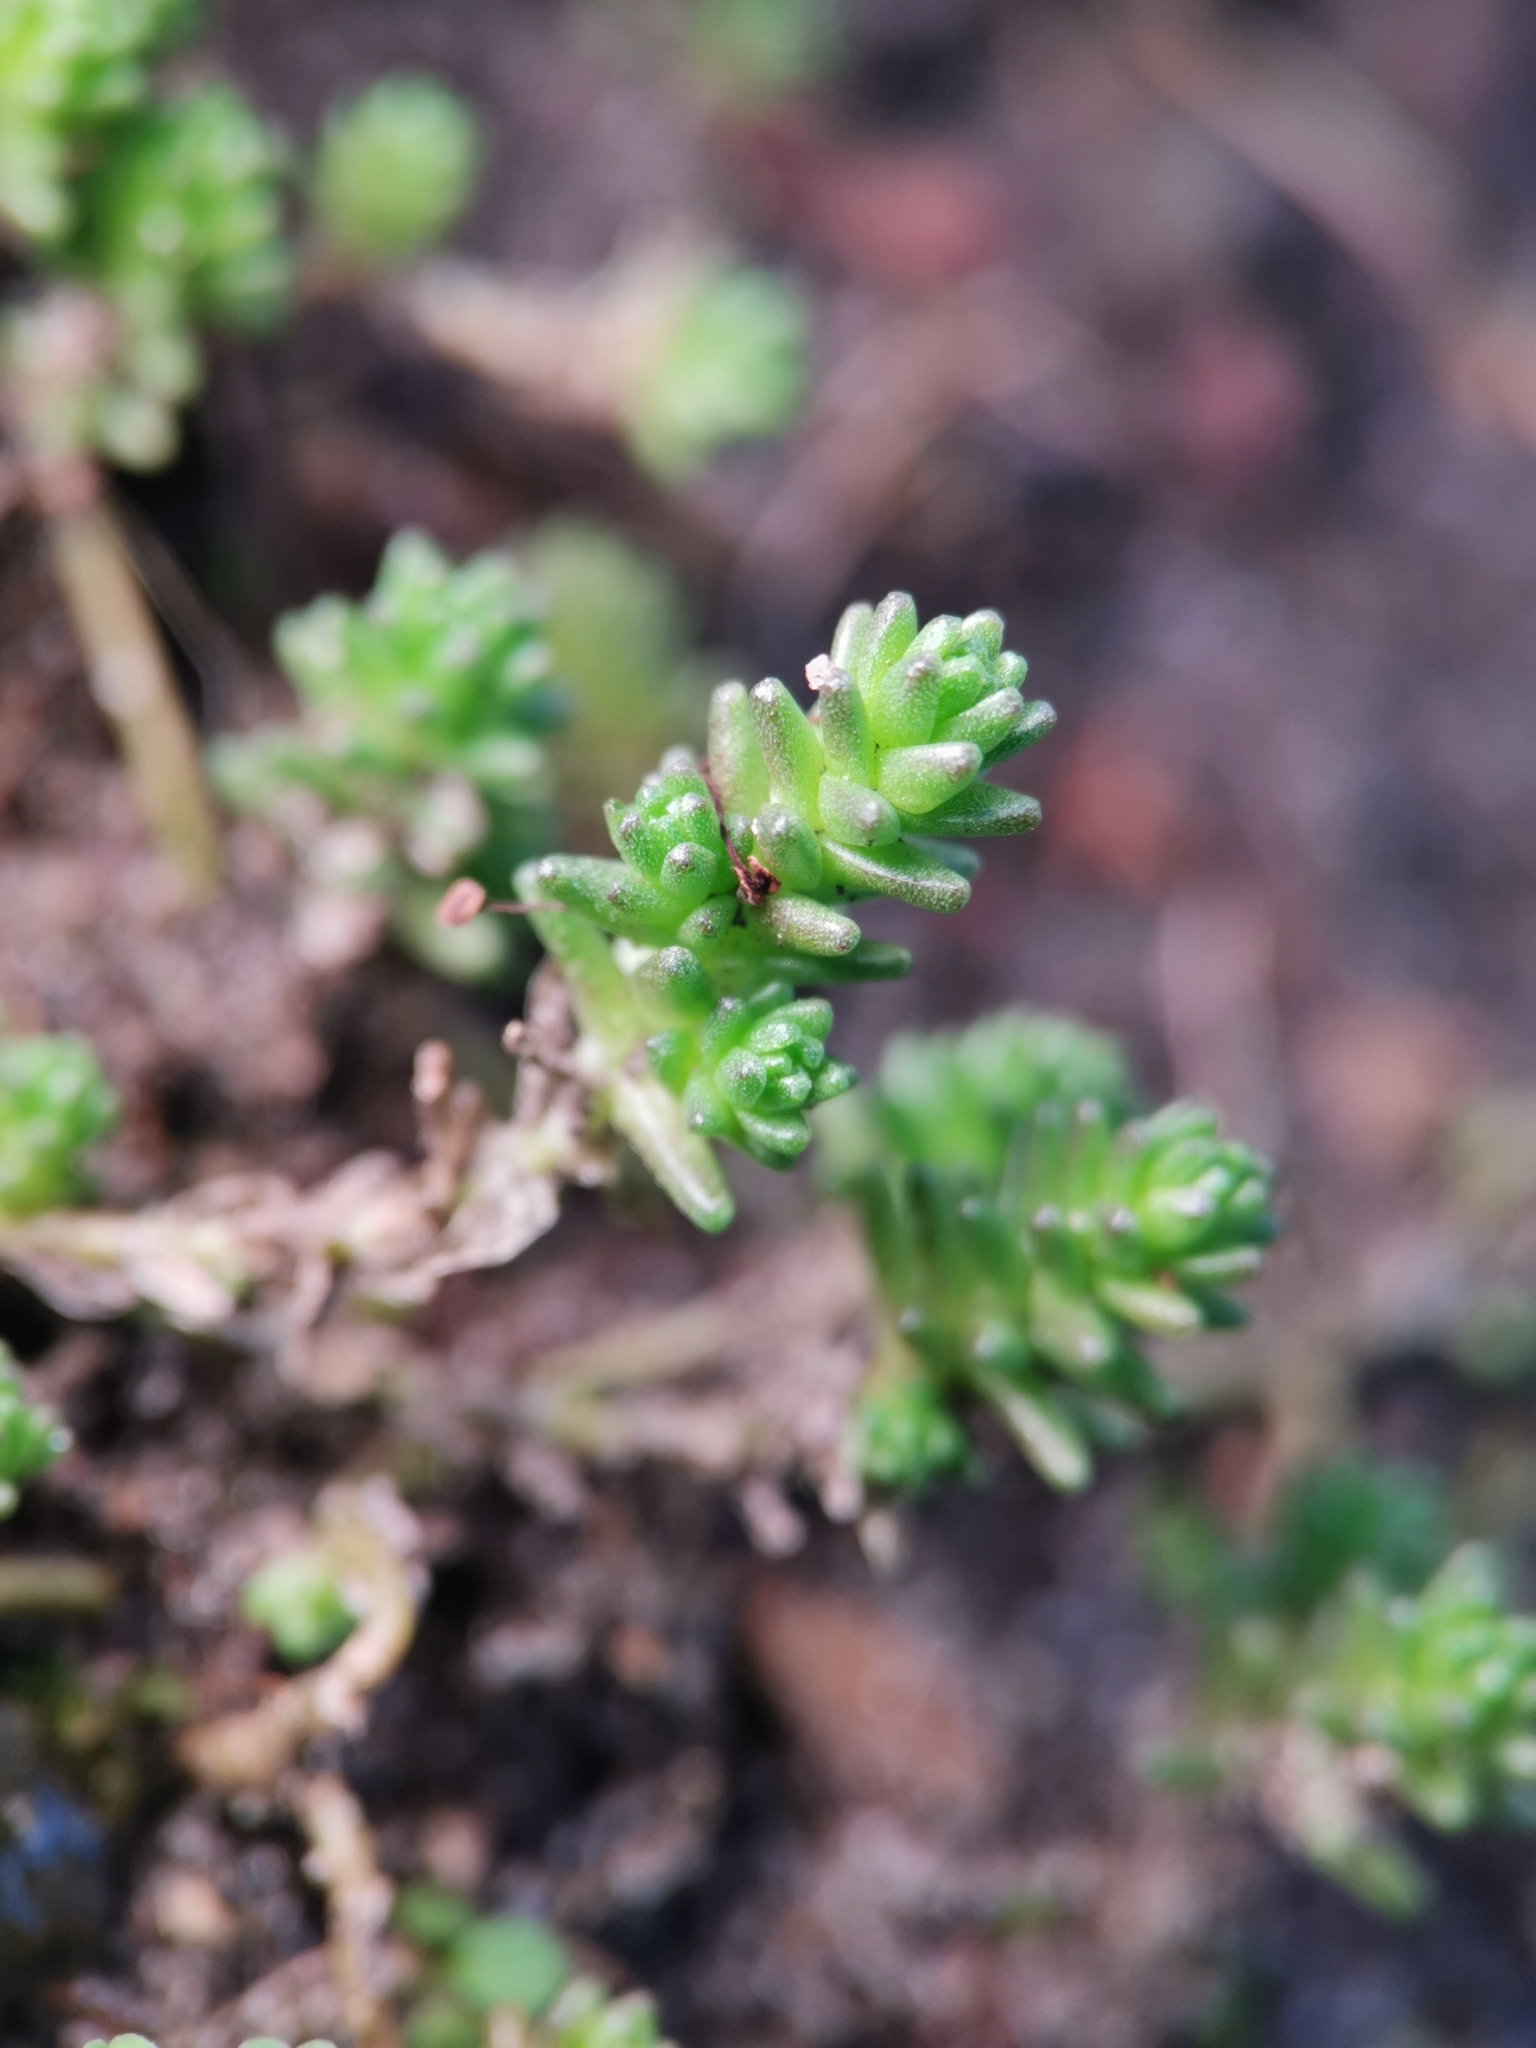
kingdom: Plantae
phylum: Tracheophyta
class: Magnoliopsida
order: Saxifragales
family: Crassulaceae
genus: Sedum
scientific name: Sedum acre
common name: Biting stonecrop
